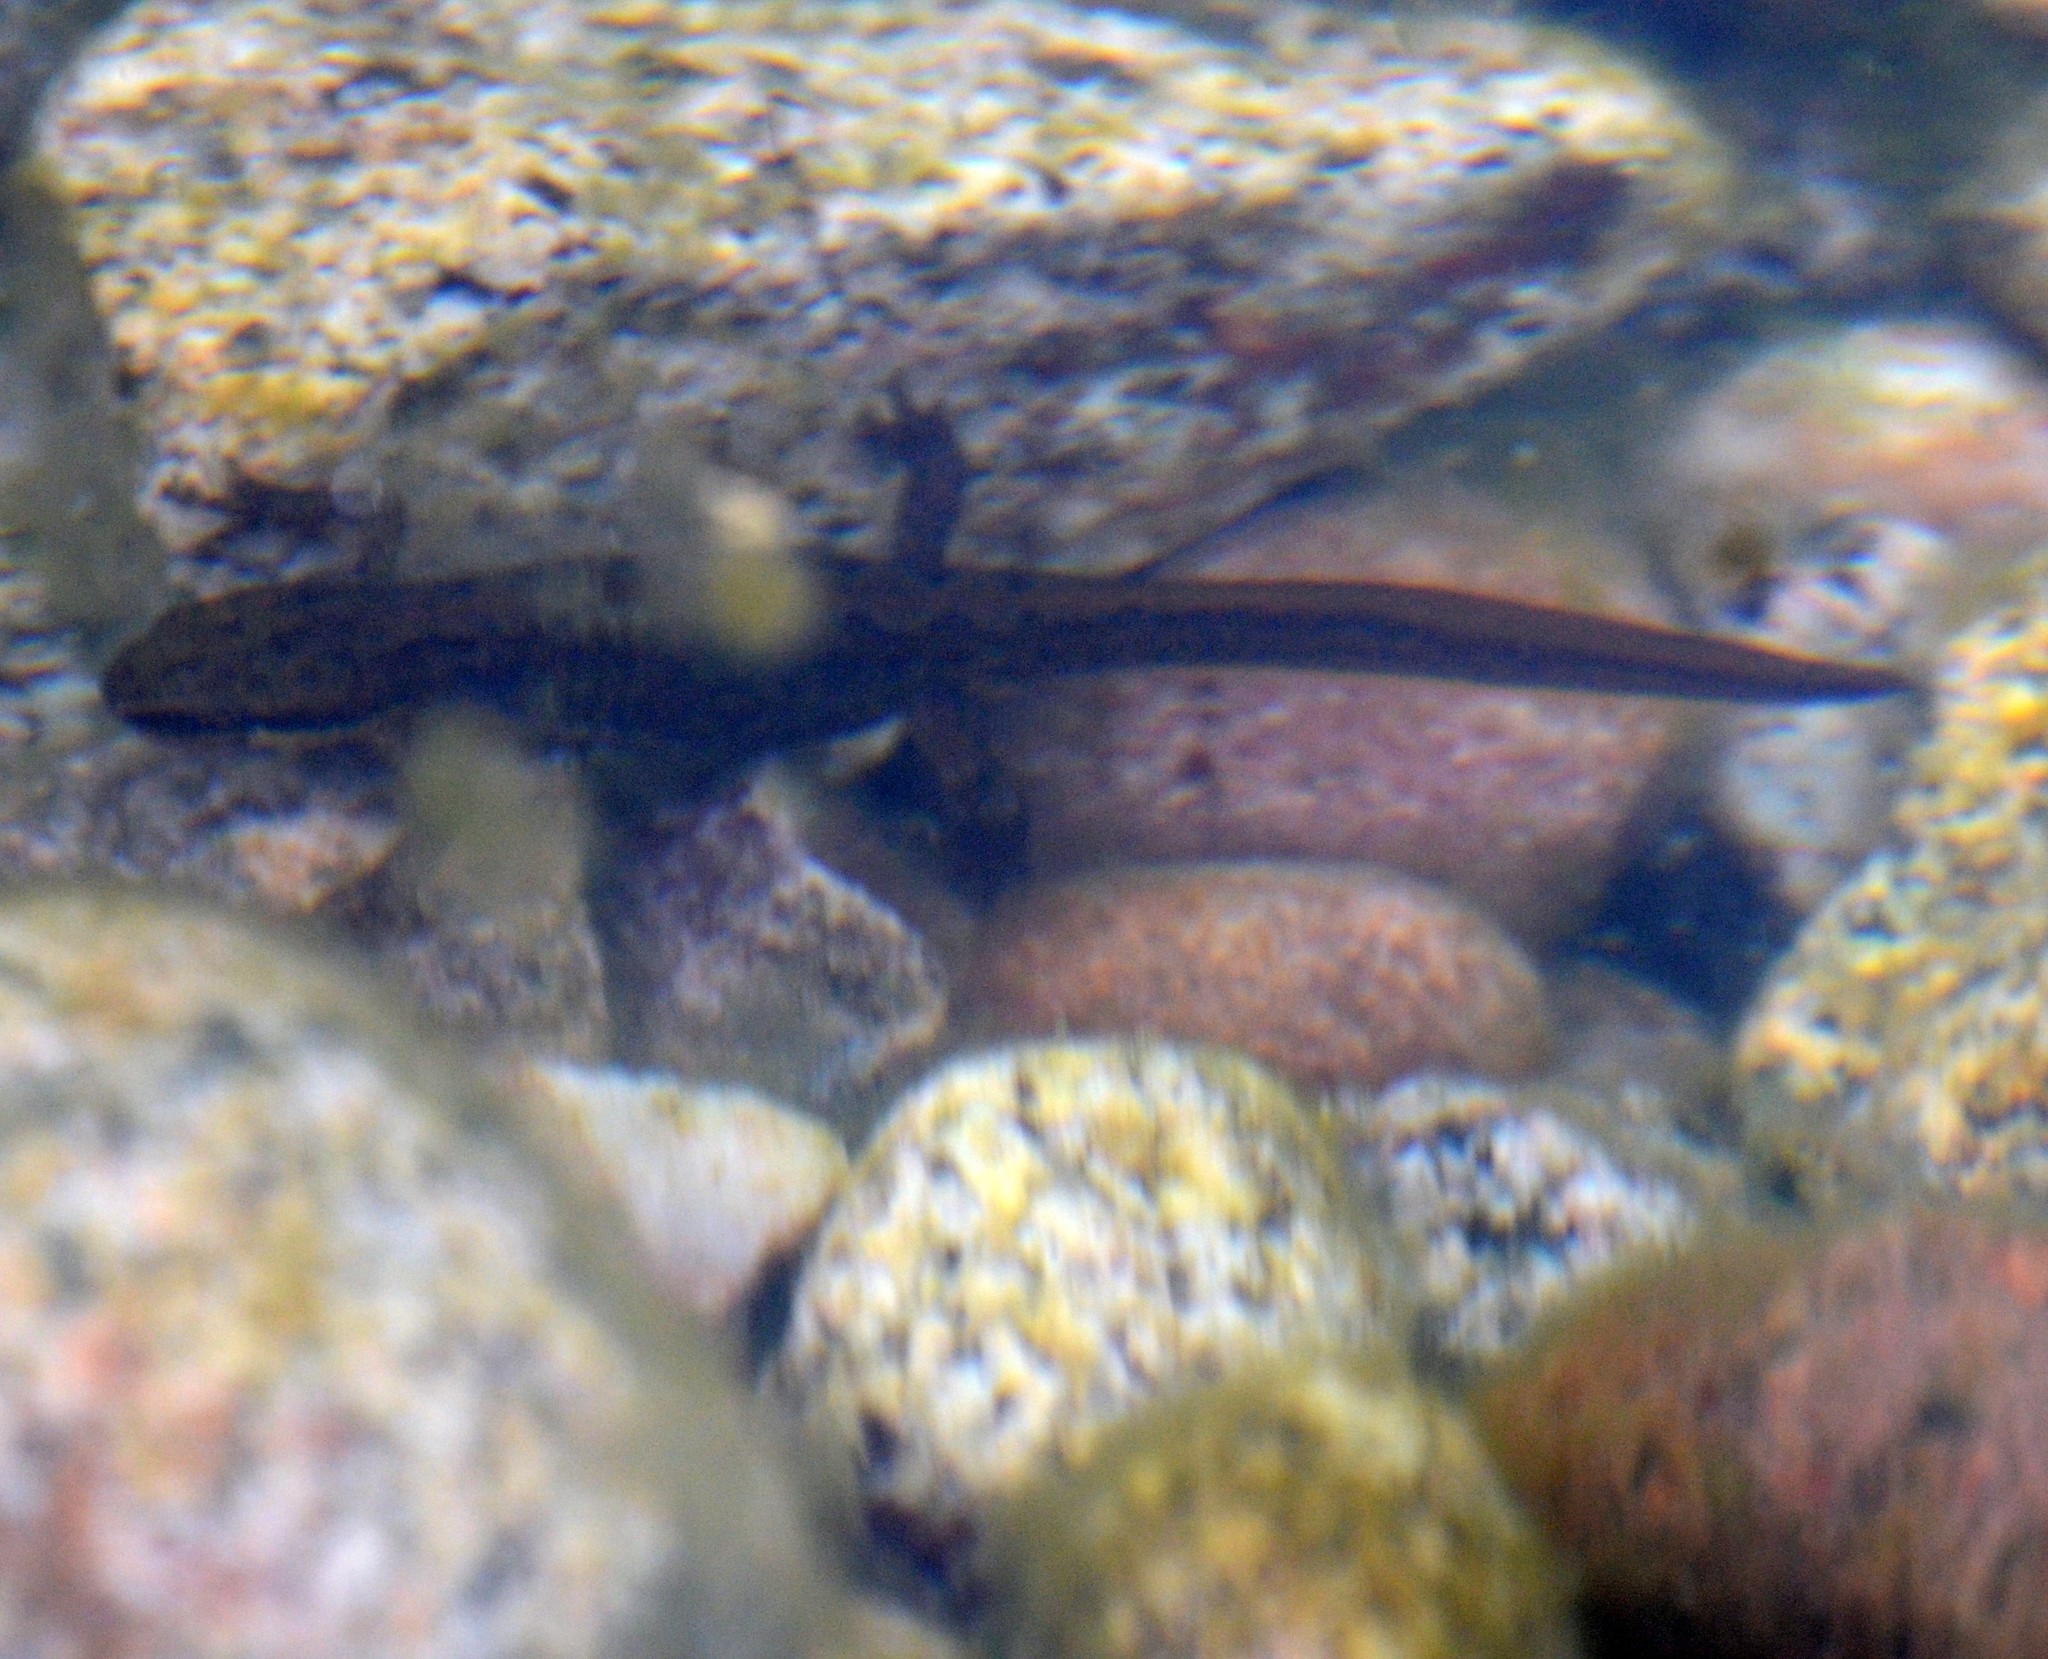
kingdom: Animalia
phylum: Chordata
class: Amphibia
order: Caudata
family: Salamandridae
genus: Lissotriton
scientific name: Lissotriton helveticus
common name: Palmate newt
